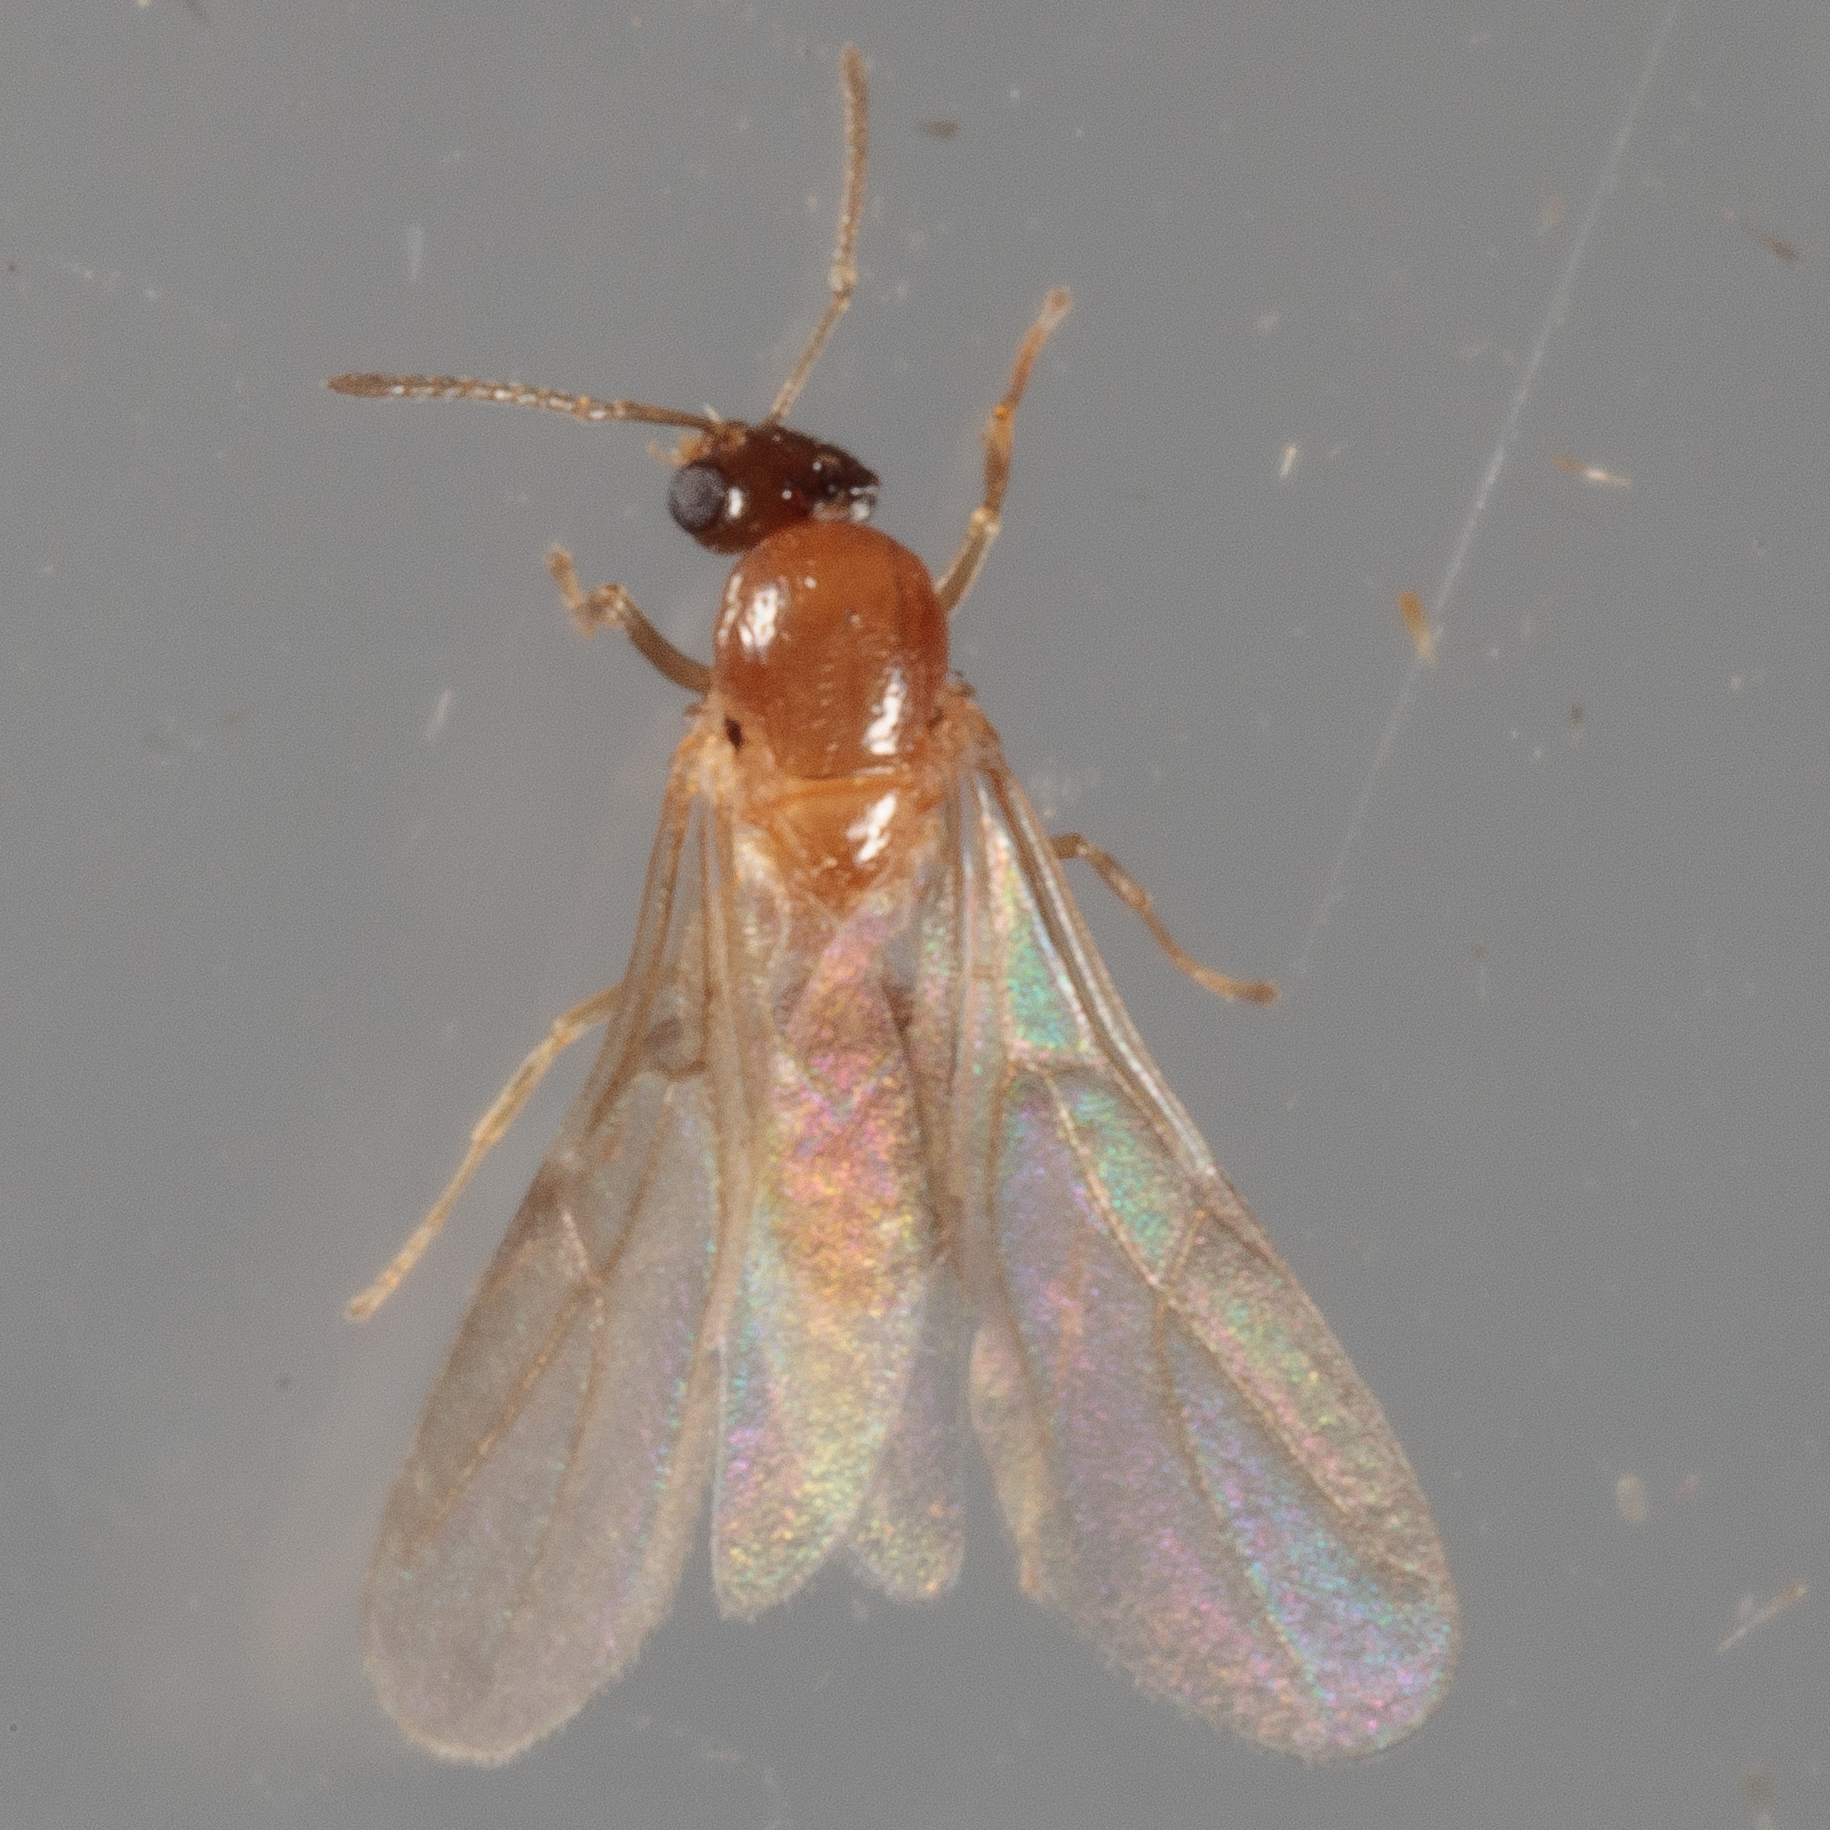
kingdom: Animalia
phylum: Arthropoda
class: Insecta
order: Hymenoptera
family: Formicidae
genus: Brachymyrmex
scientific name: Brachymyrmex patagonicus
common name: Dark rover ant
